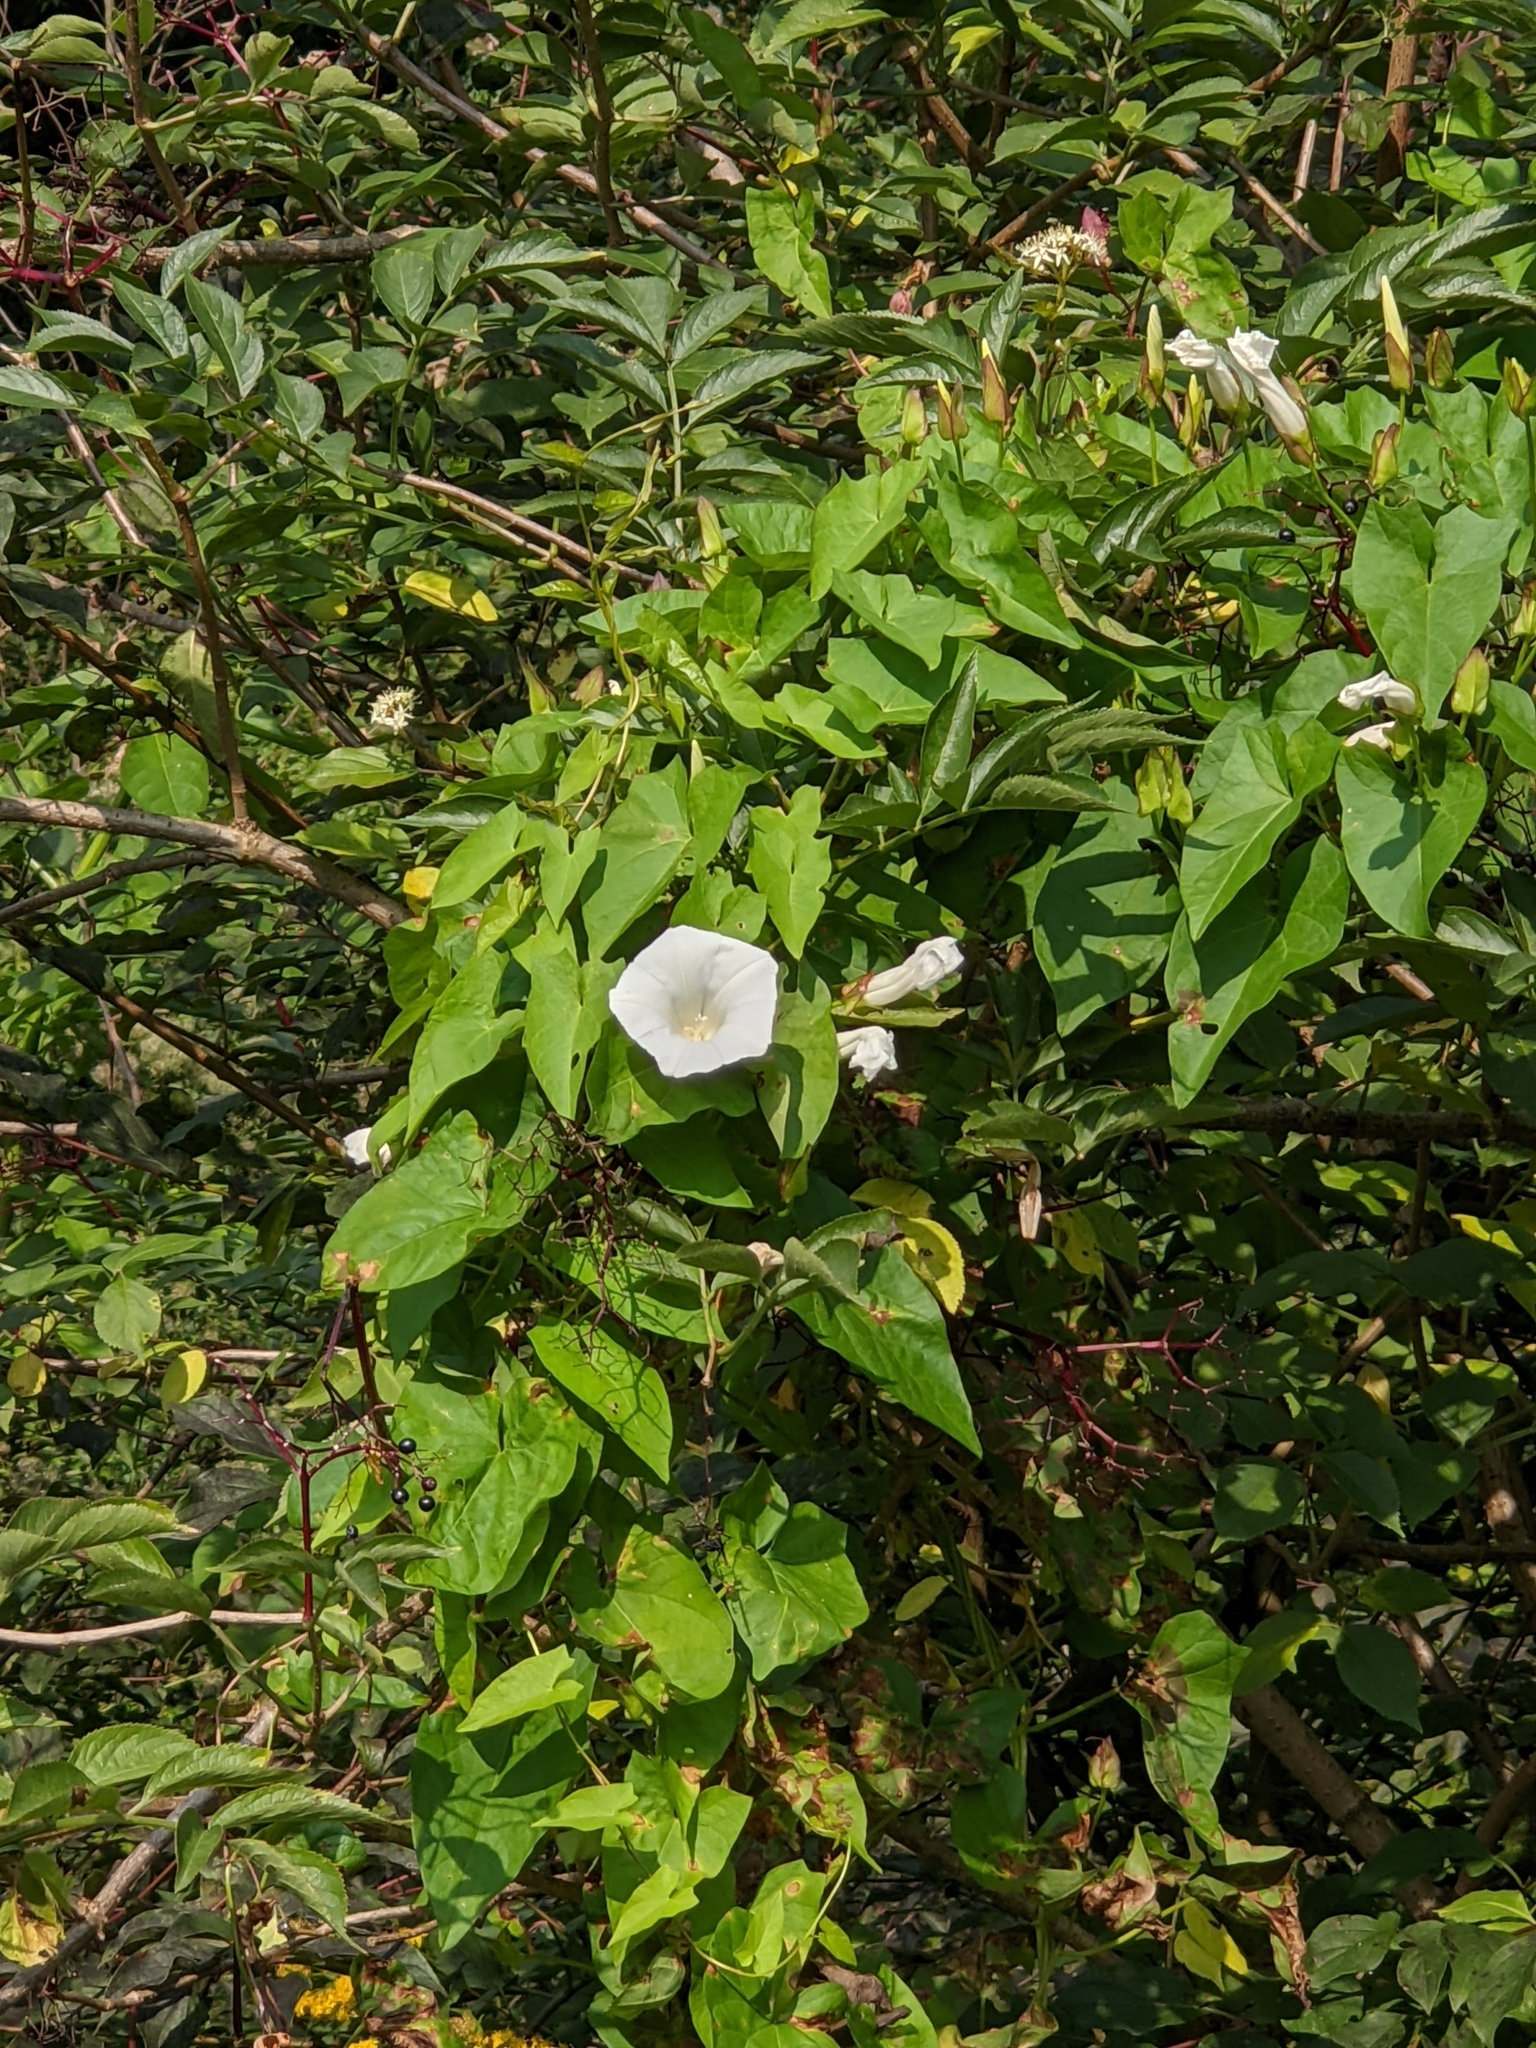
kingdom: Plantae
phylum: Tracheophyta
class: Magnoliopsida
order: Solanales
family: Convolvulaceae
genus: Calystegia
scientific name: Calystegia sepium
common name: Hedge bindweed
